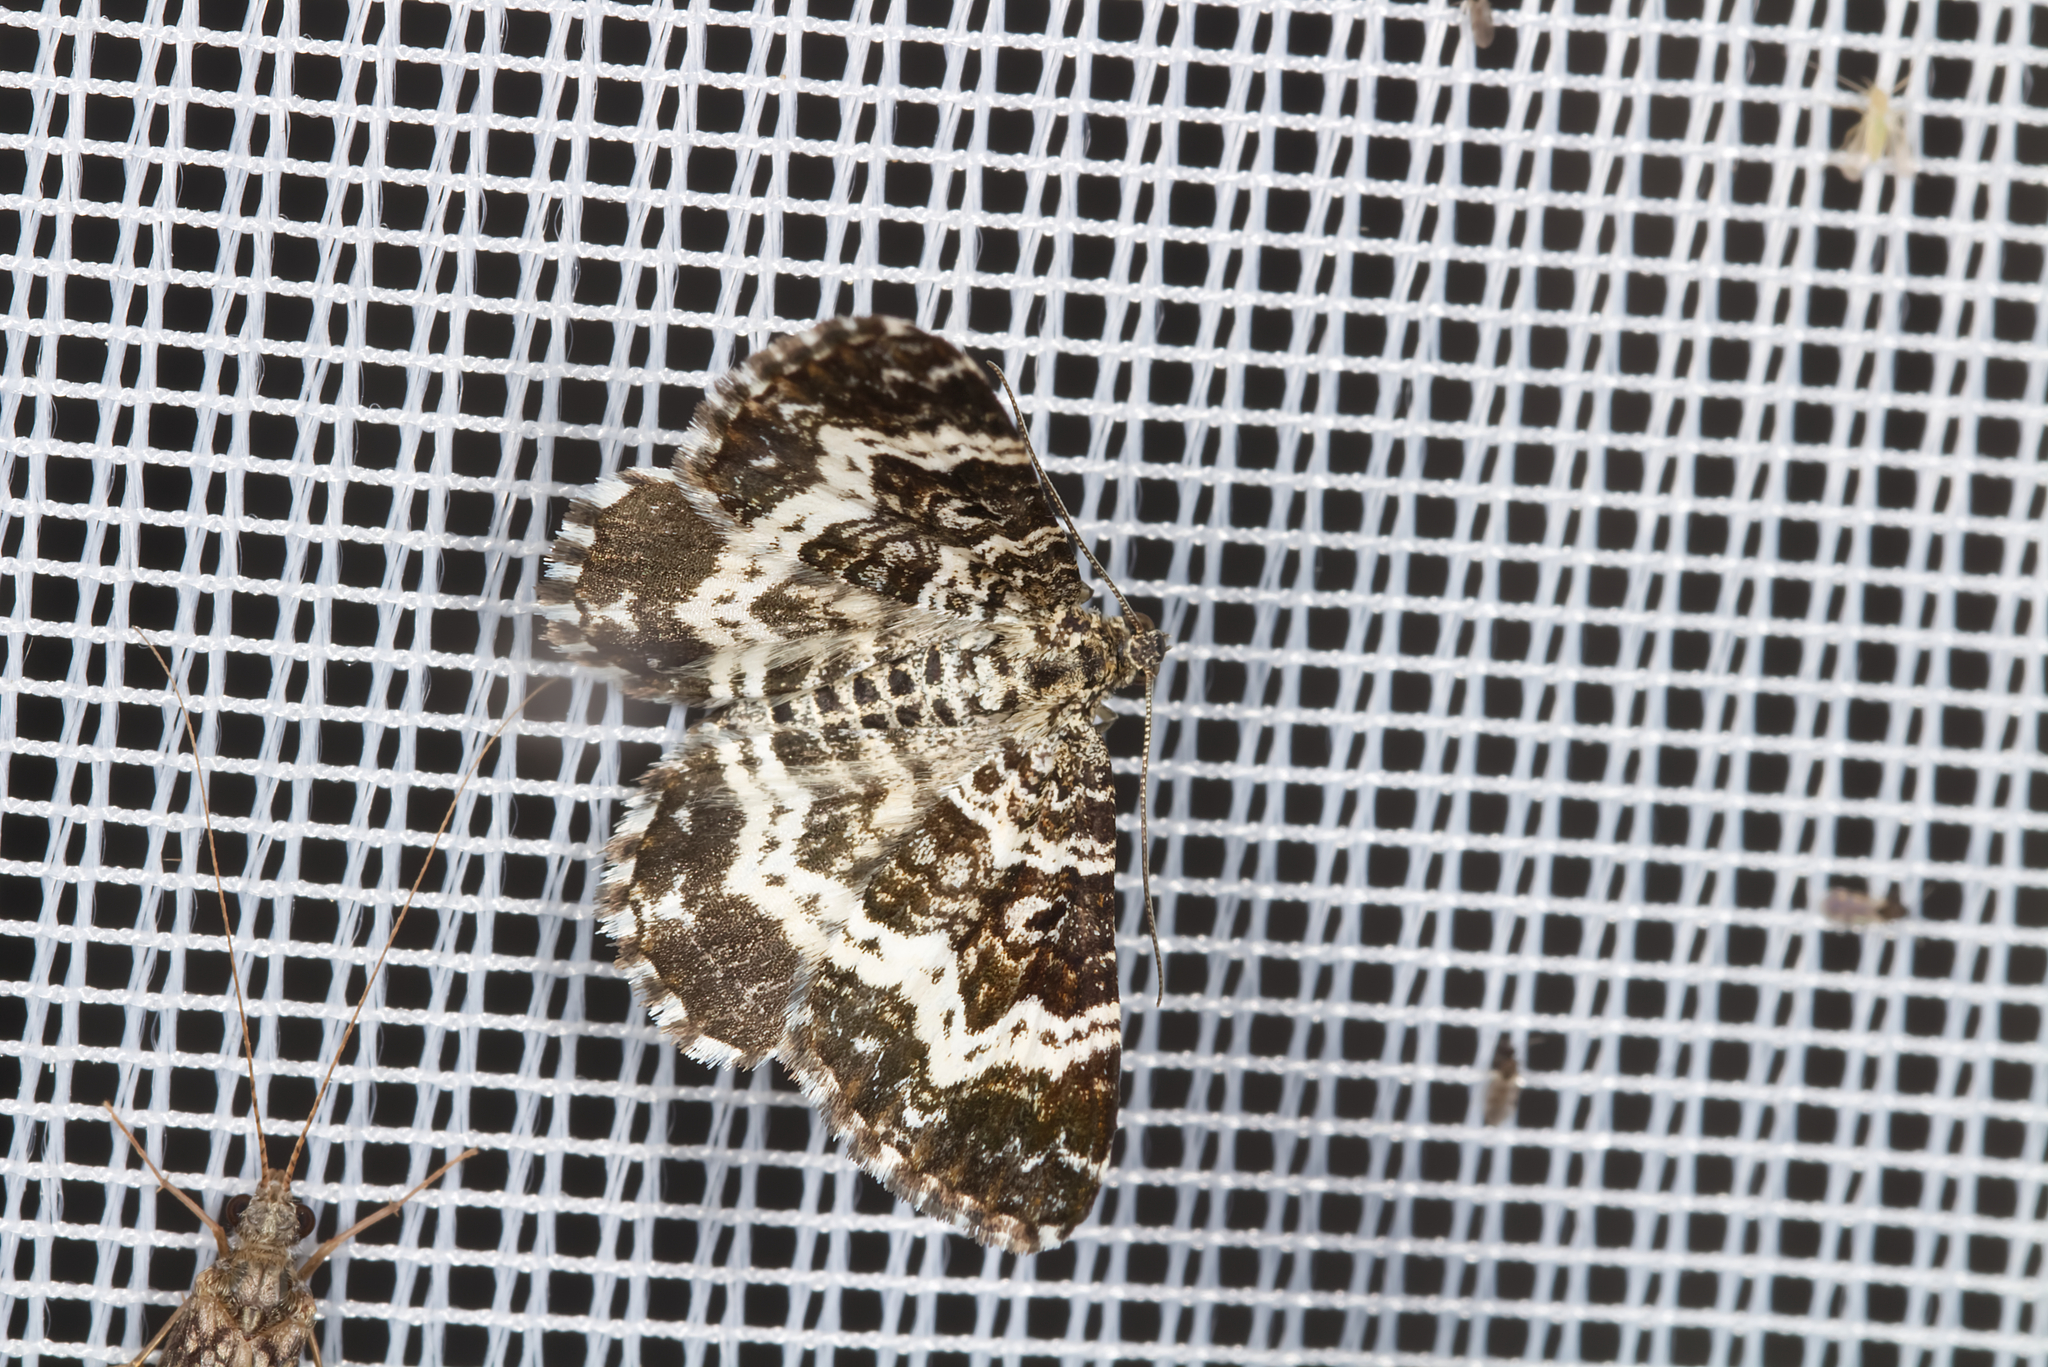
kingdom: Animalia
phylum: Arthropoda
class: Insecta
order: Lepidoptera
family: Geometridae
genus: Epirrhoe
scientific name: Epirrhoe tristata
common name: Small argent & sable
